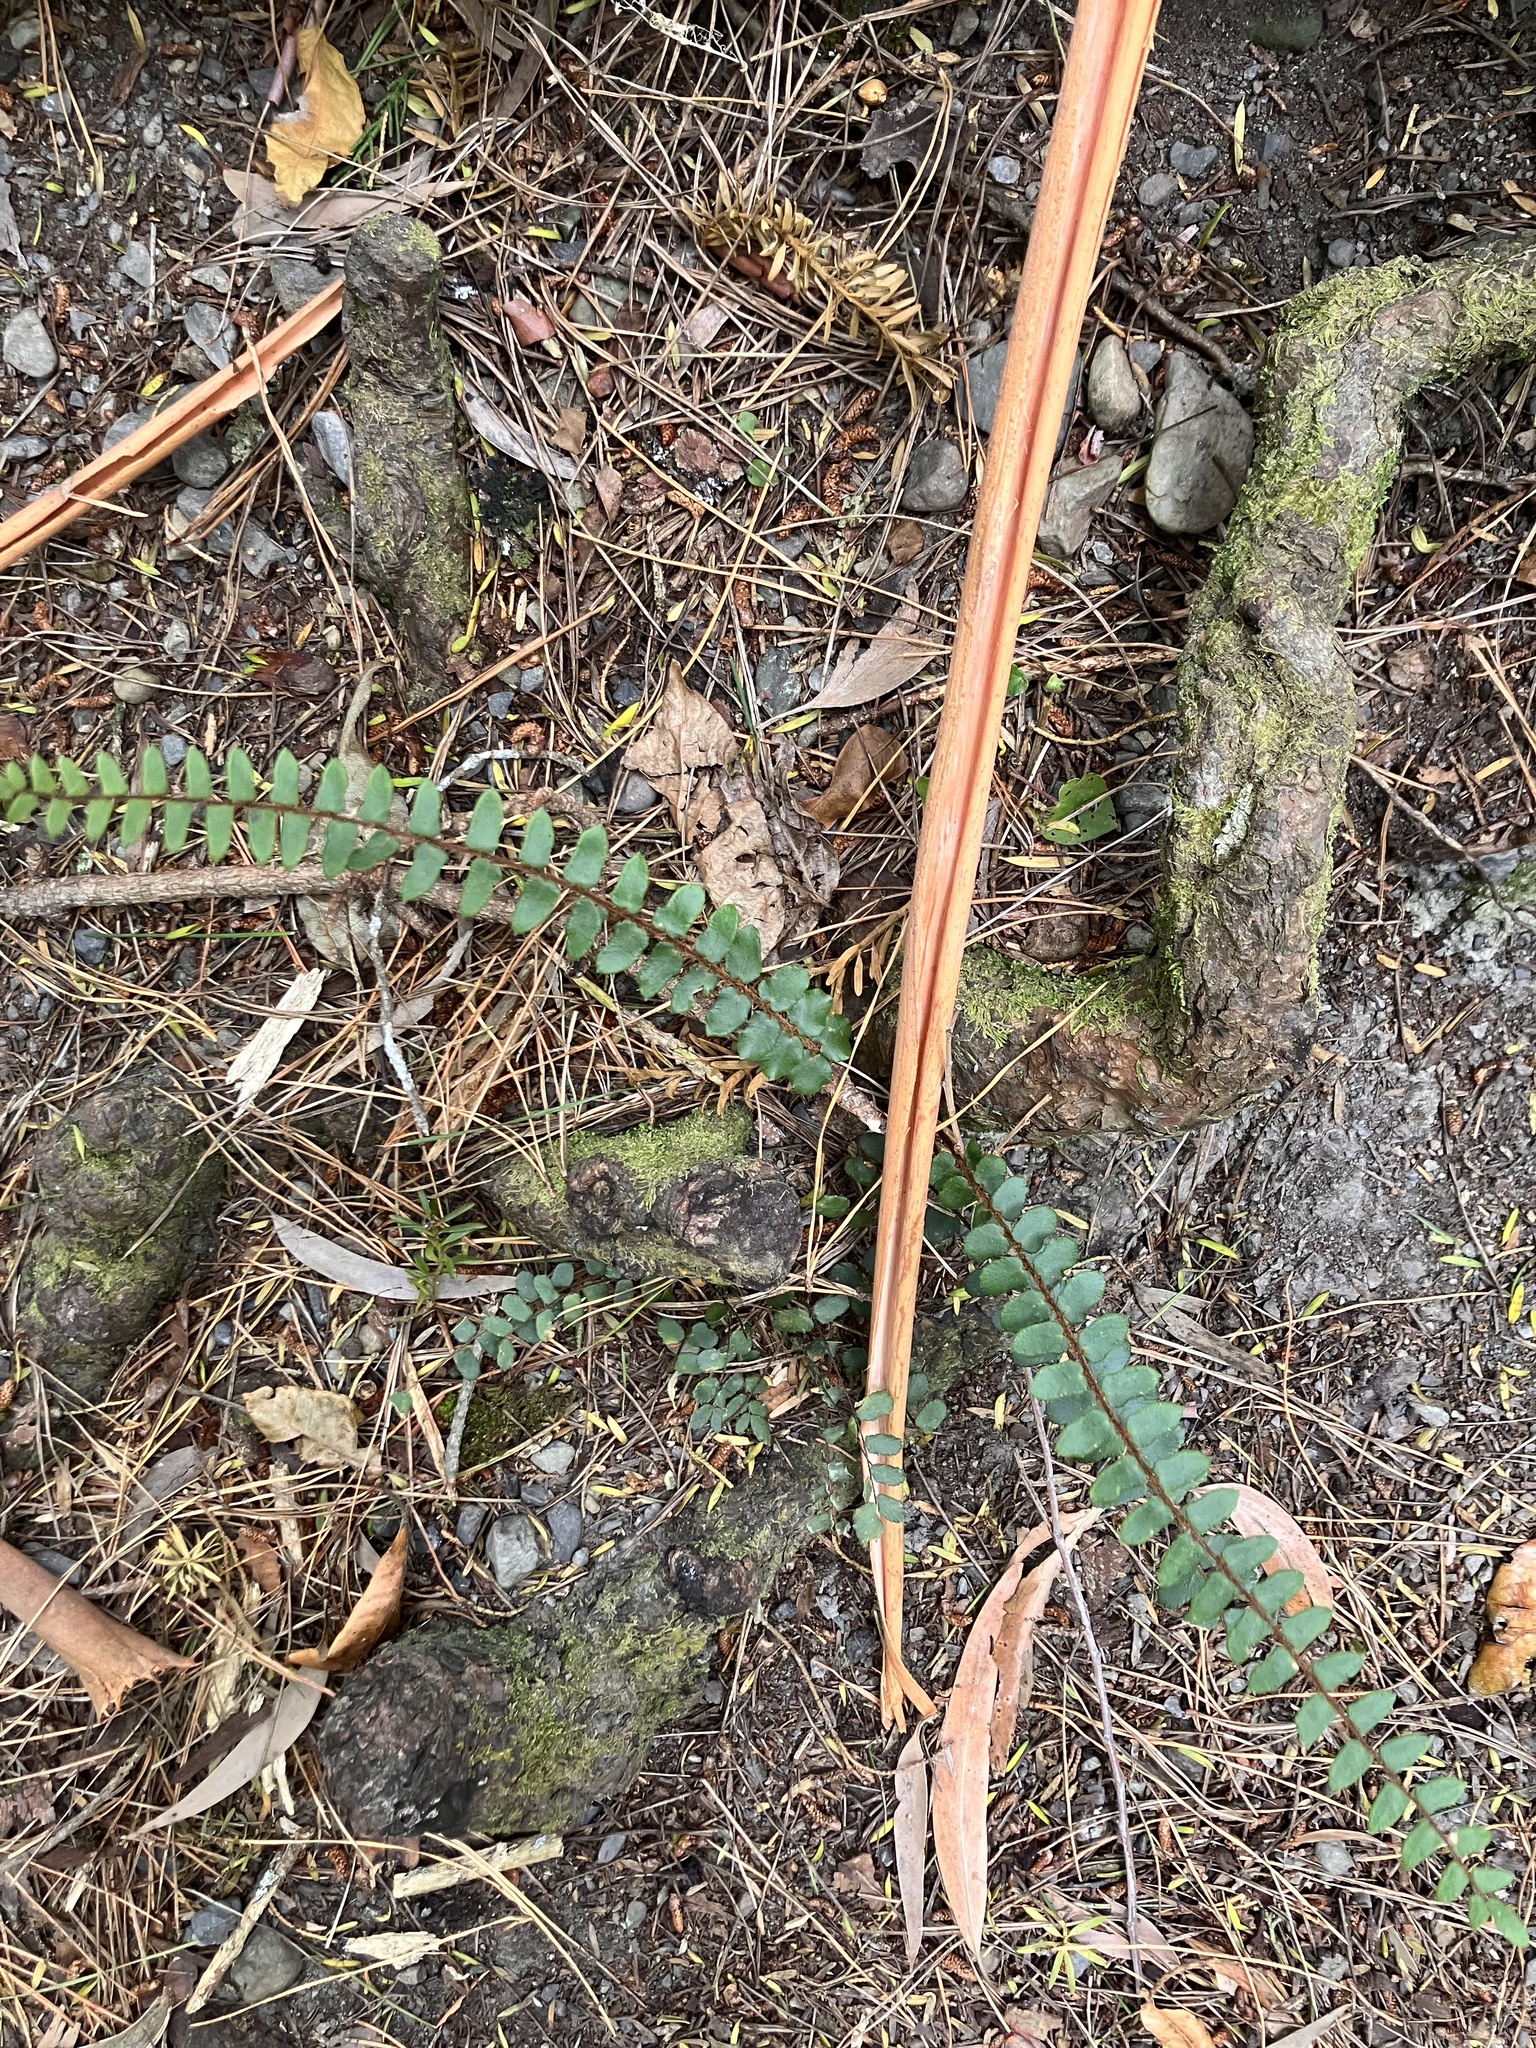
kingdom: Plantae
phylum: Tracheophyta
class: Polypodiopsida
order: Polypodiales
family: Pteridaceae
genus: Pellaea
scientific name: Pellaea rotundifolia
